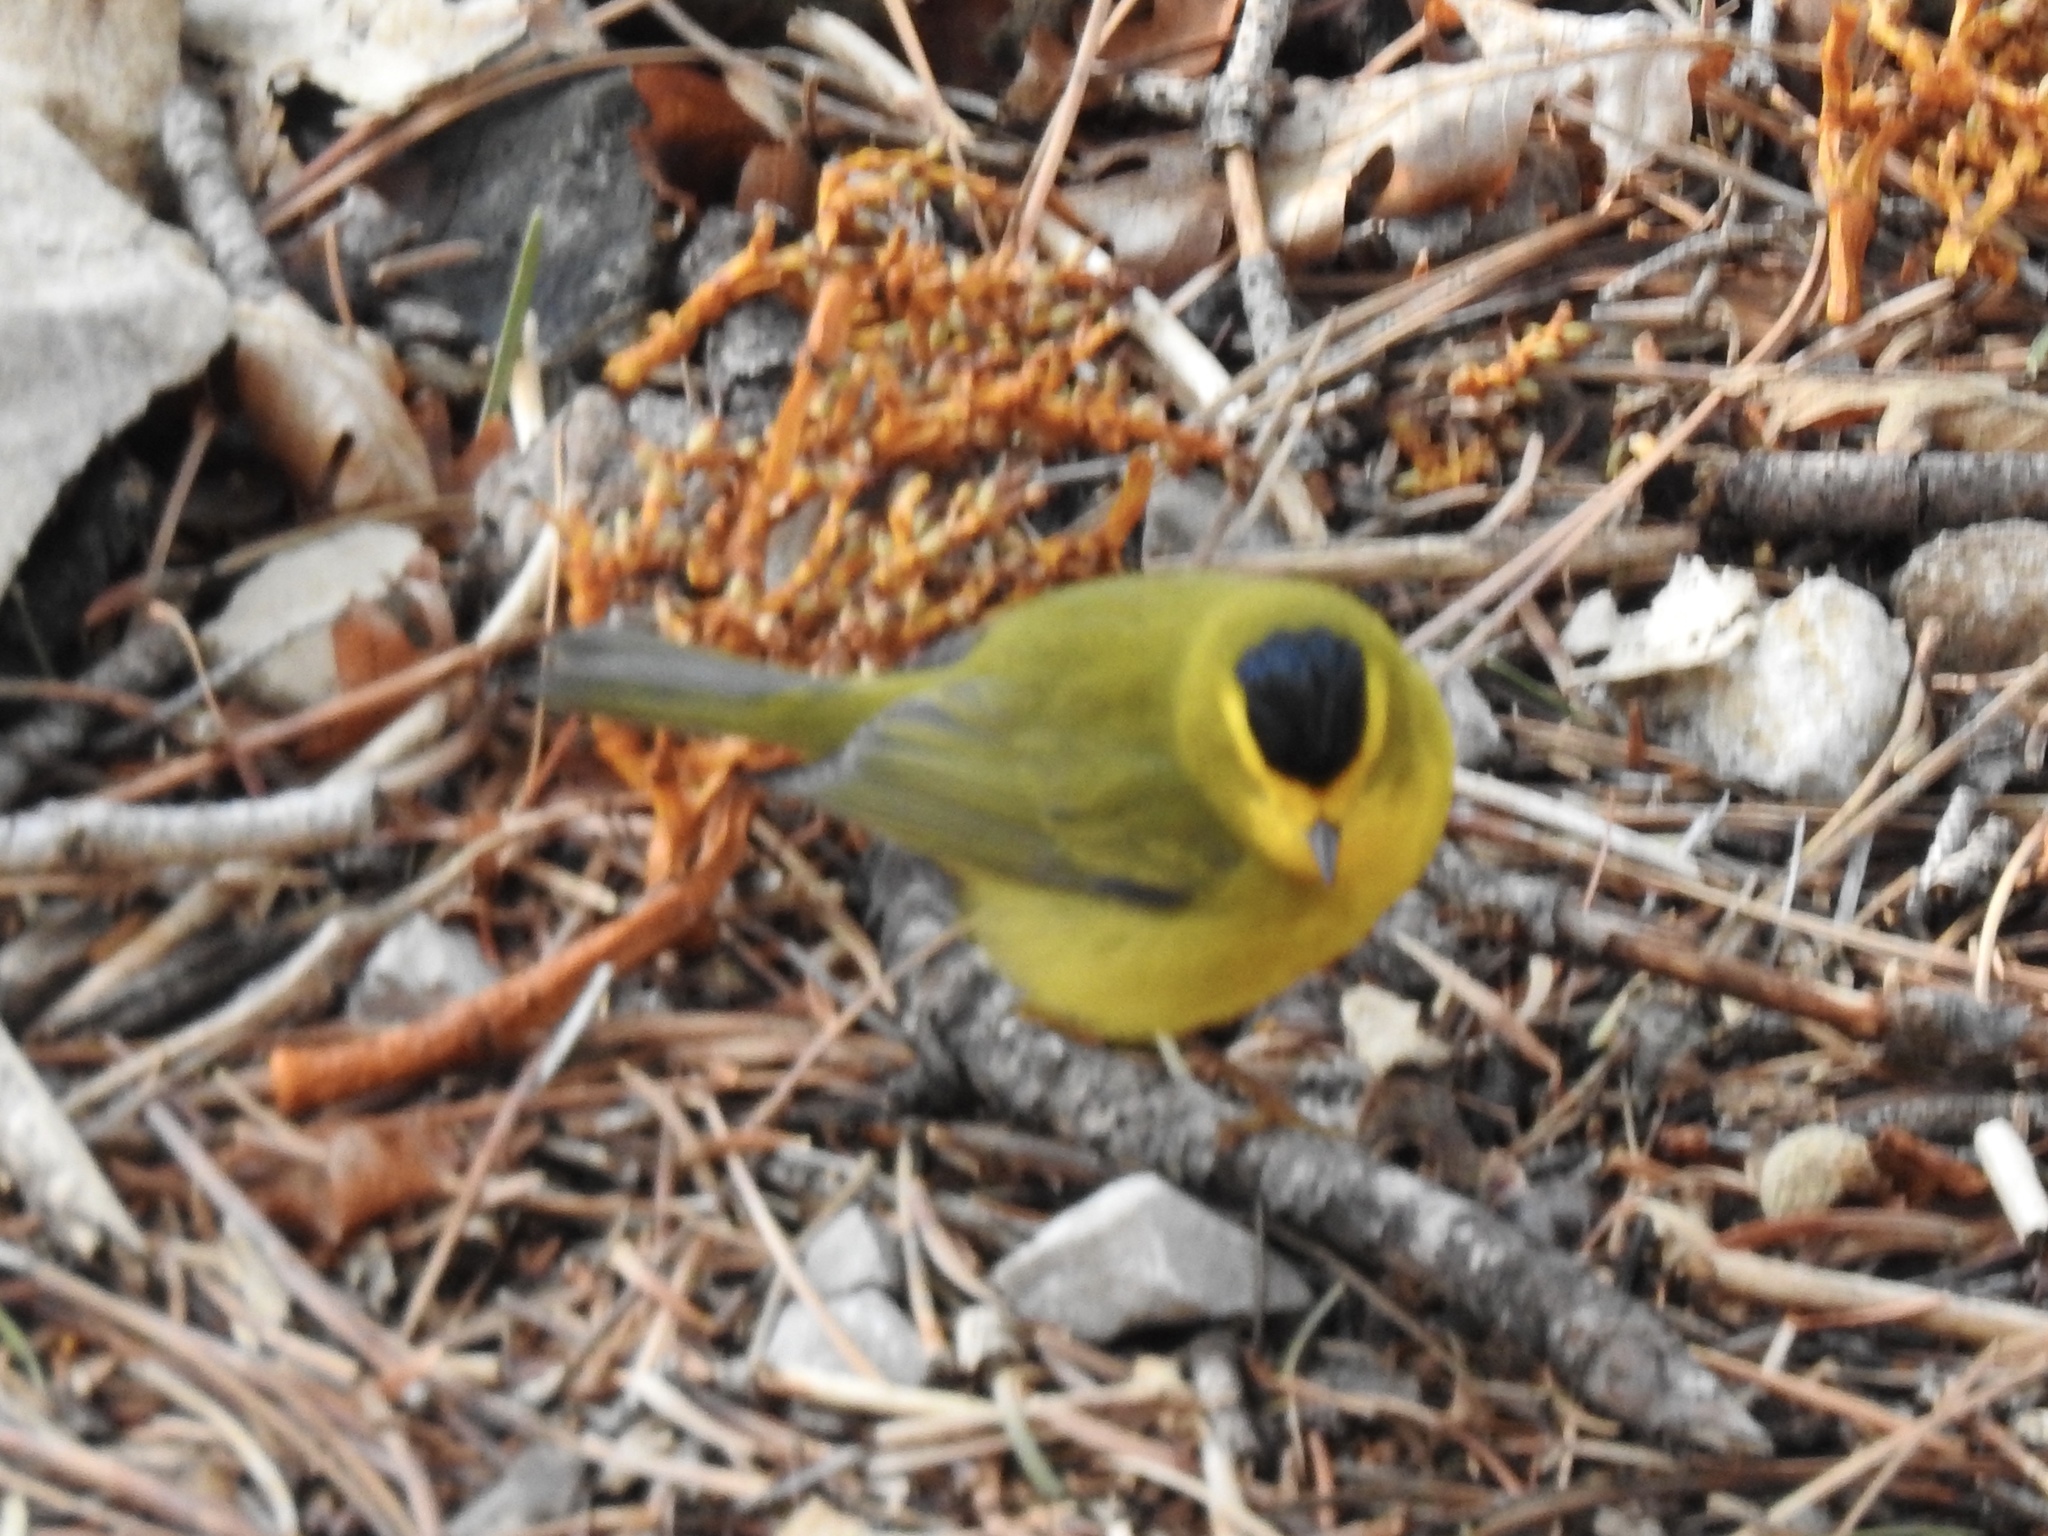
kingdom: Animalia
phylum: Chordata
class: Aves
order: Passeriformes
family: Parulidae
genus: Cardellina
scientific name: Cardellina pusilla
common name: Wilson's warbler
